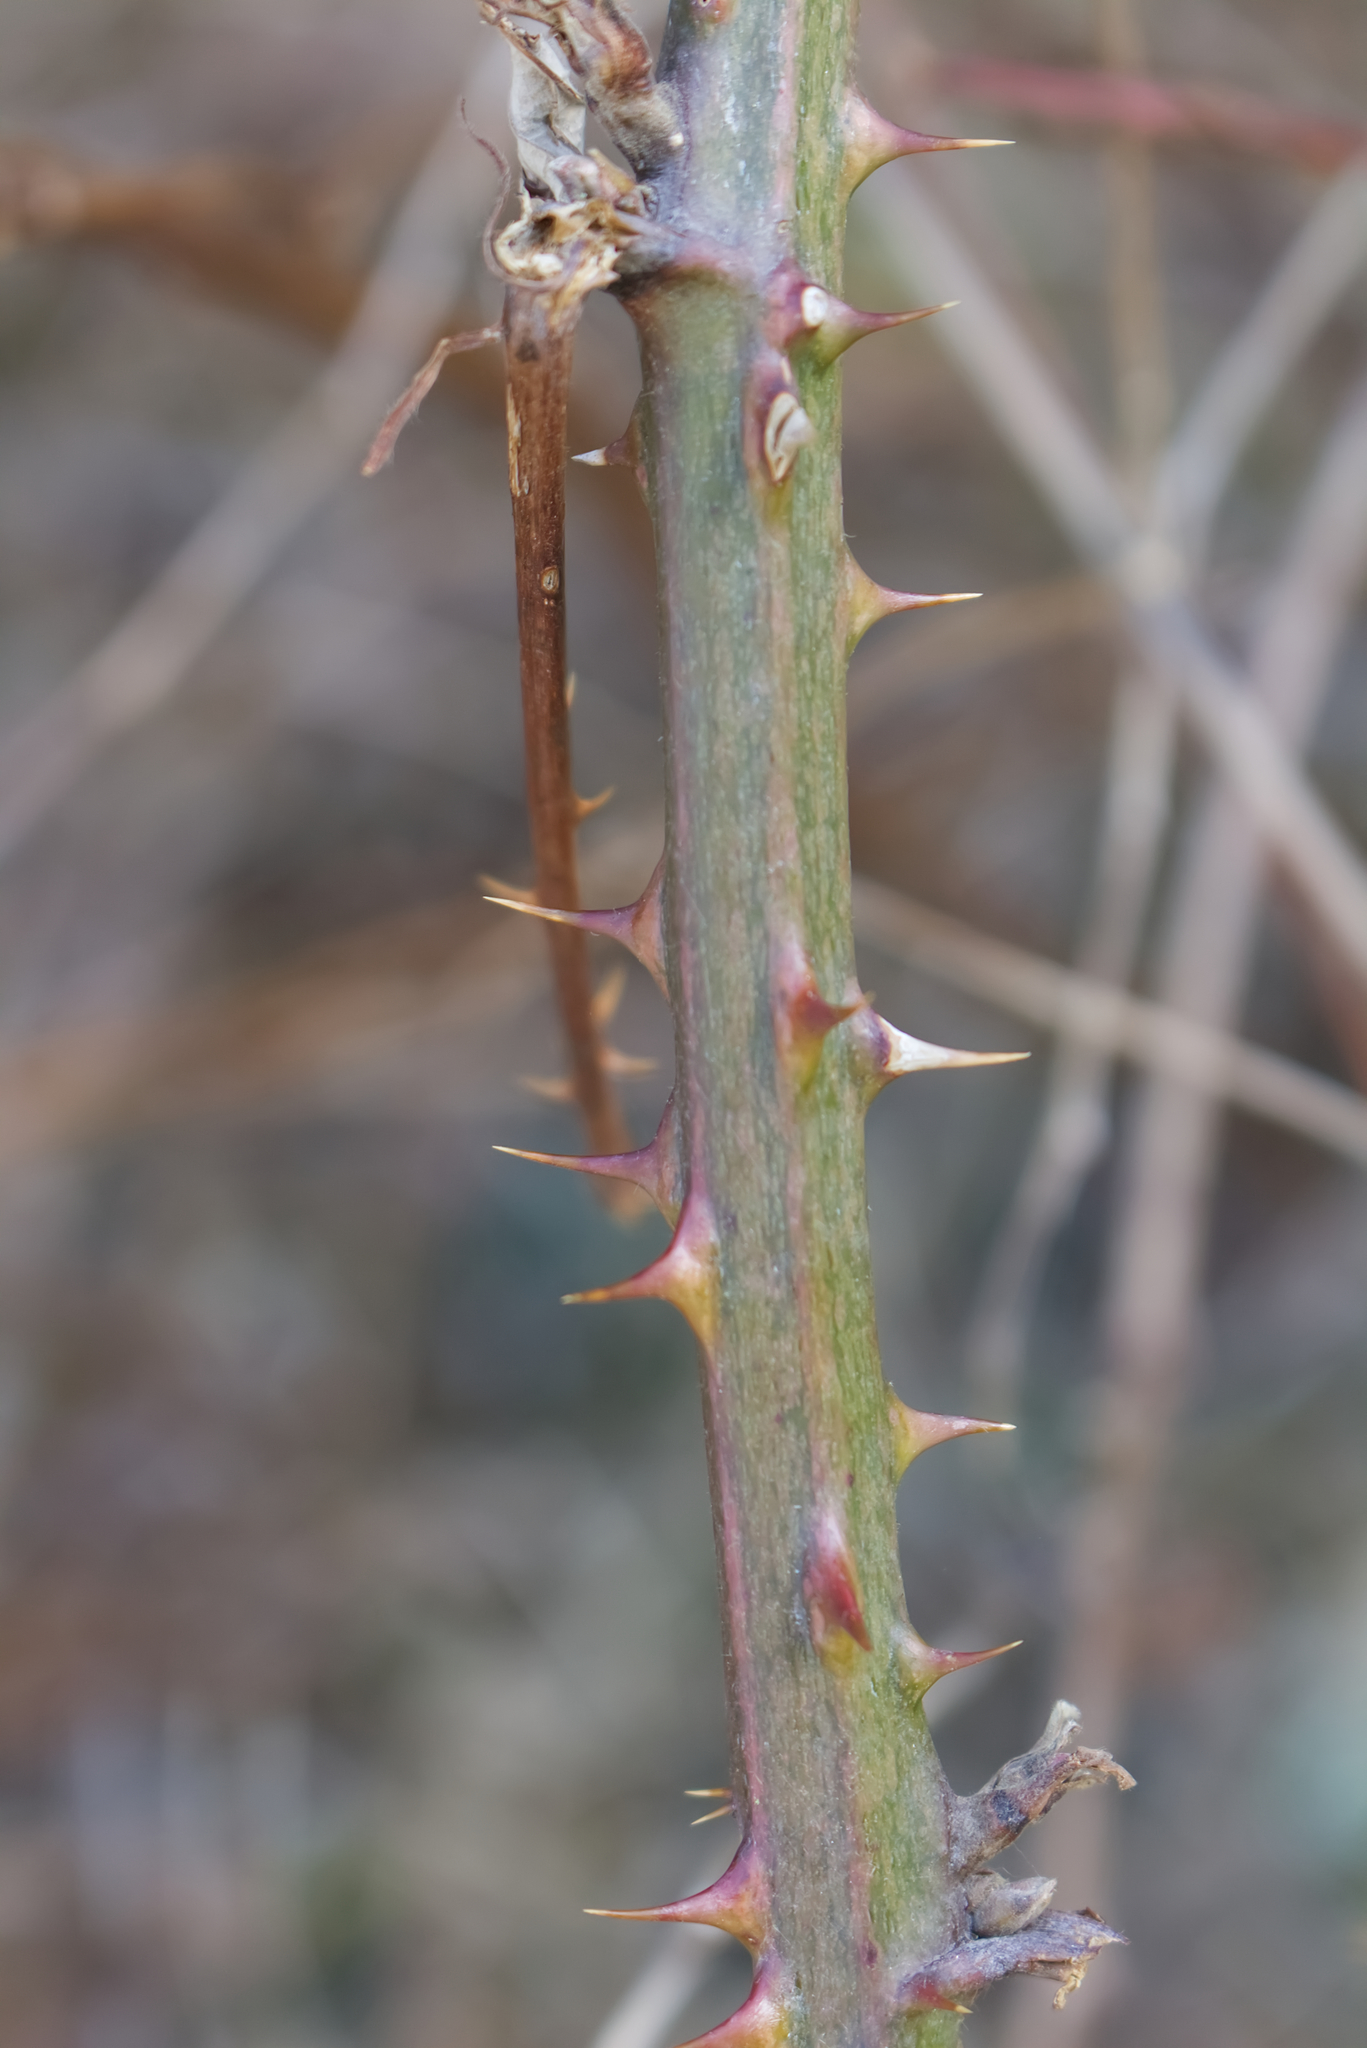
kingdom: Plantae
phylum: Tracheophyta
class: Magnoliopsida
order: Rosales
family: Rosaceae
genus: Rubus
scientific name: Rubus
